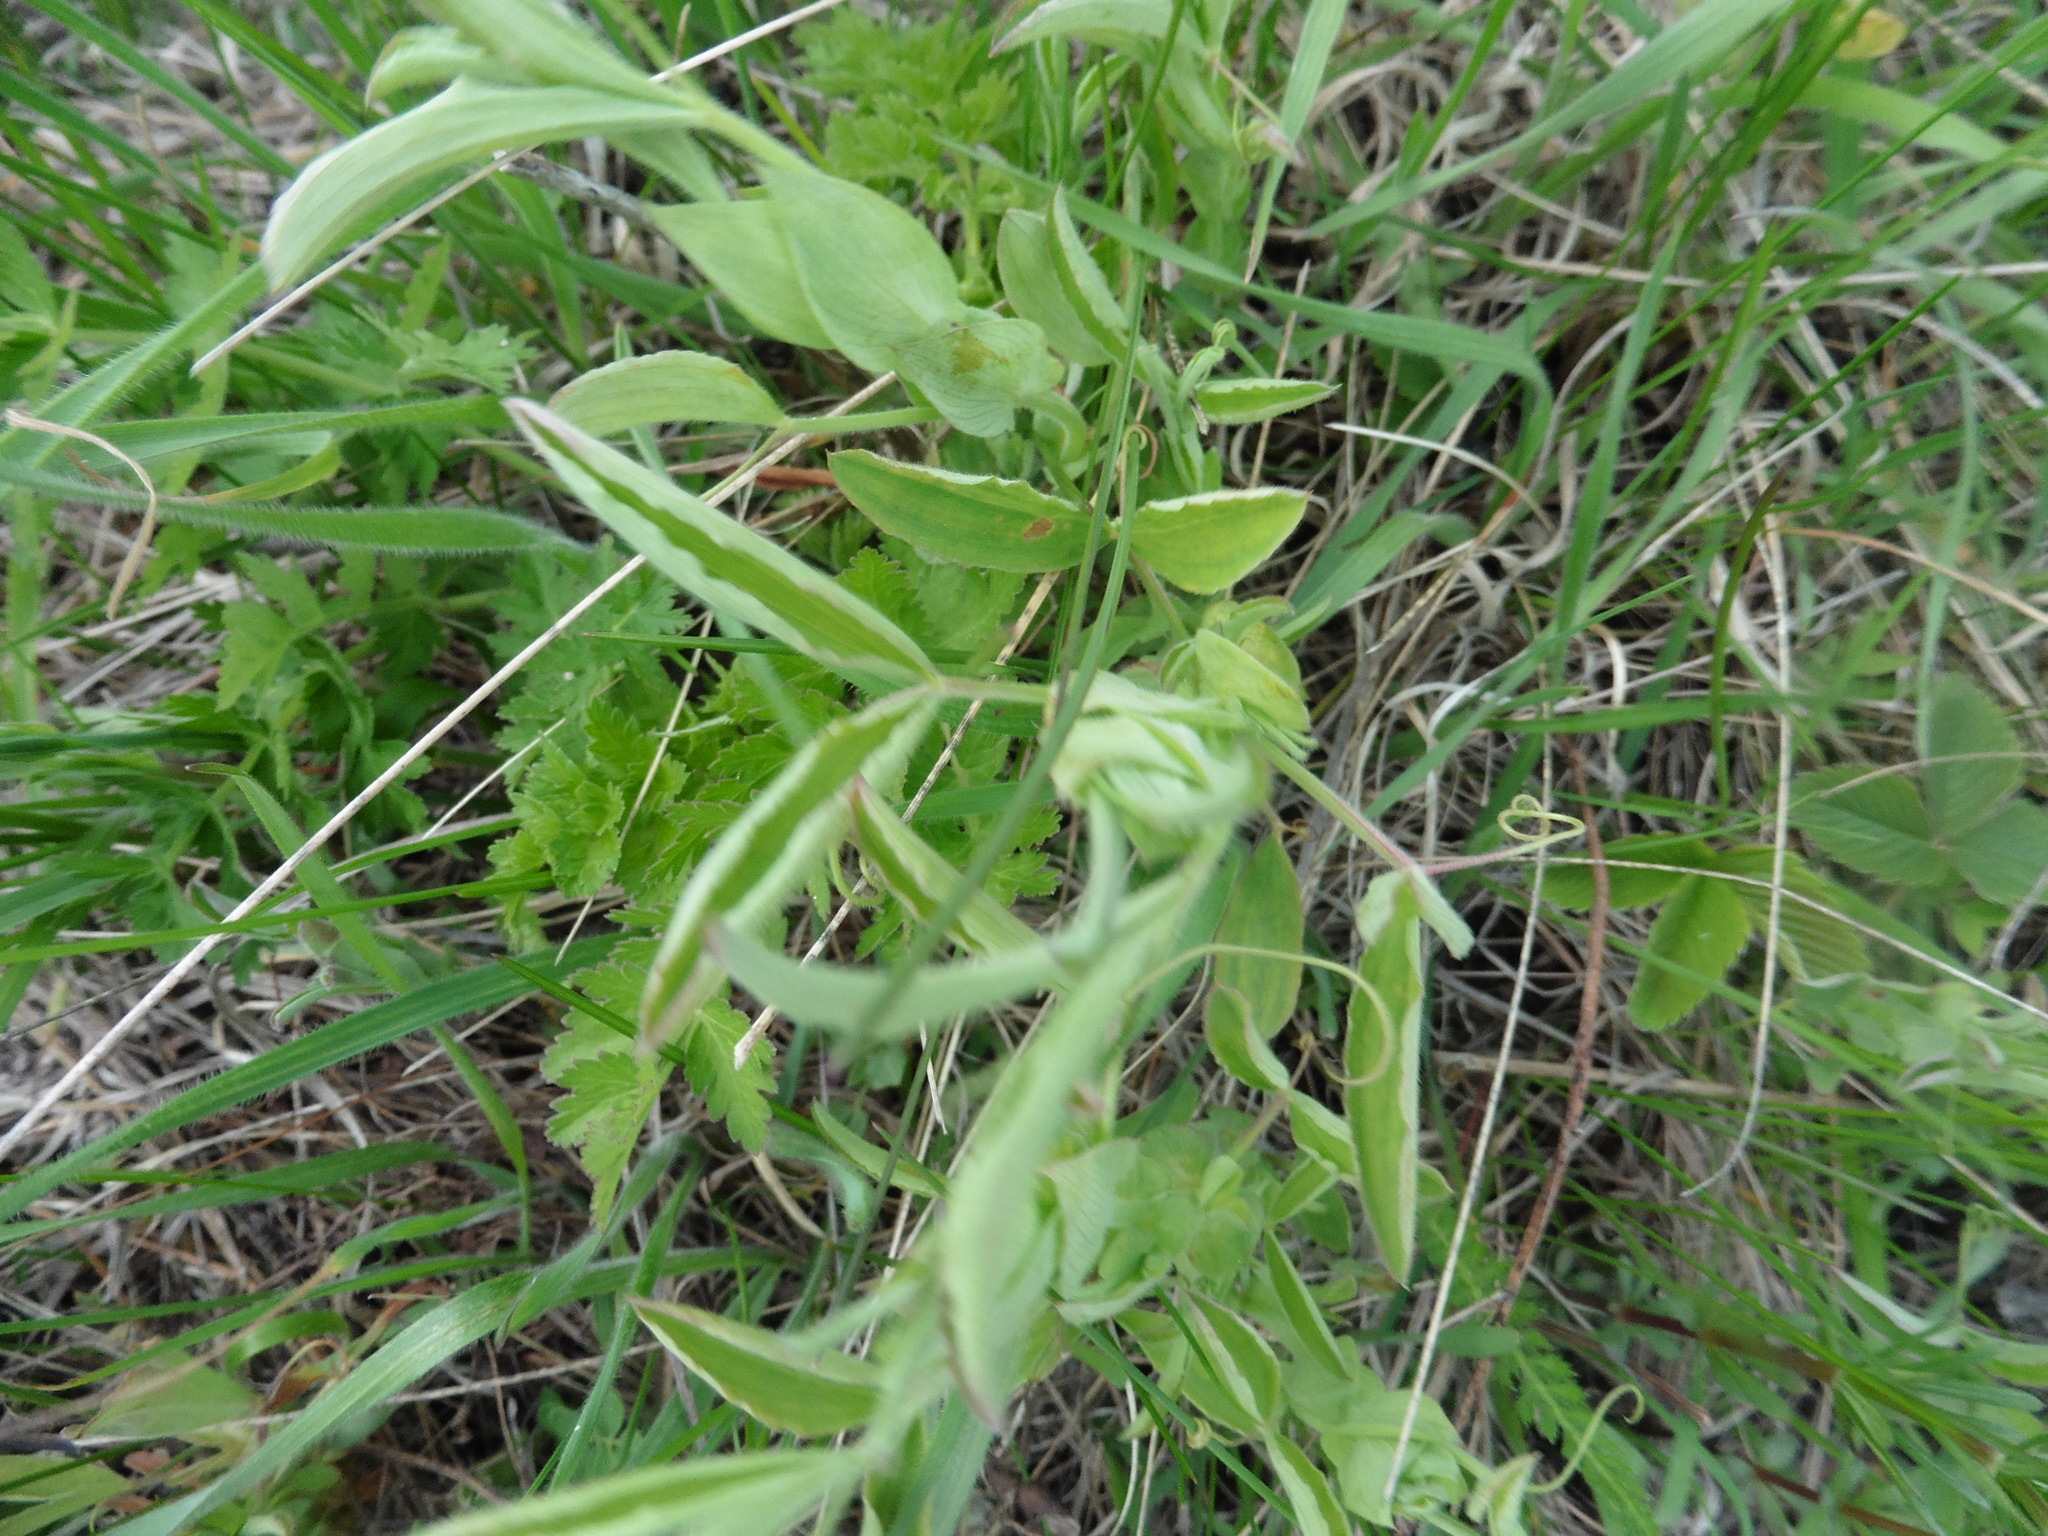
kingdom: Plantae
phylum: Tracheophyta
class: Magnoliopsida
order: Fabales
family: Fabaceae
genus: Lathyrus
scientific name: Lathyrus pratensis
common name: Meadow vetchling
